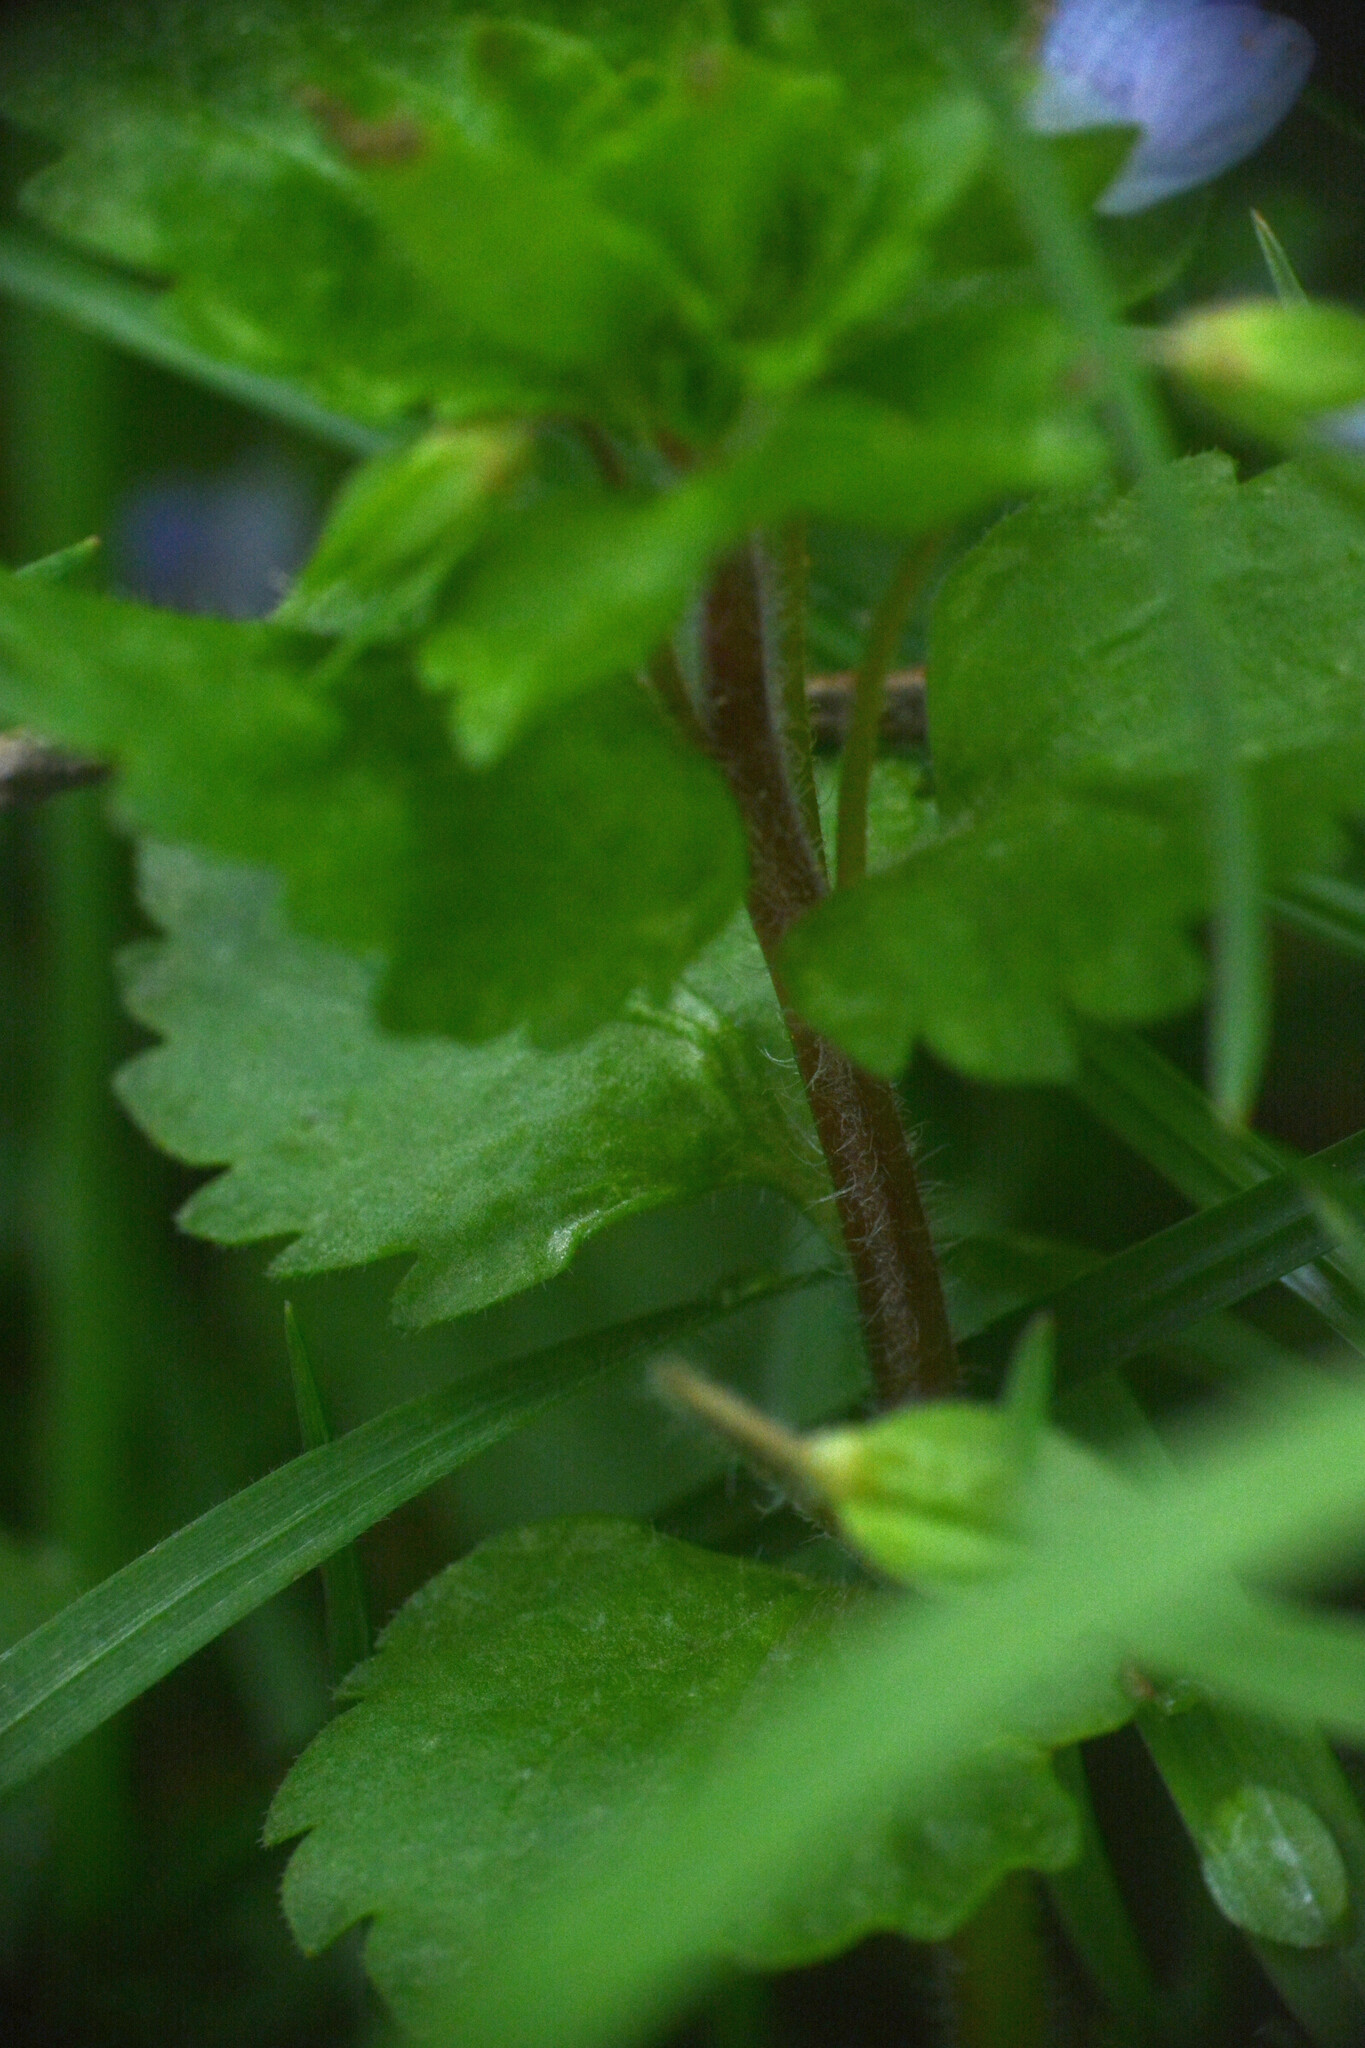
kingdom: Plantae
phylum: Tracheophyta
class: Magnoliopsida
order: Lamiales
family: Plantaginaceae
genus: Veronica
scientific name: Veronica persica
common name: Common field-speedwell
